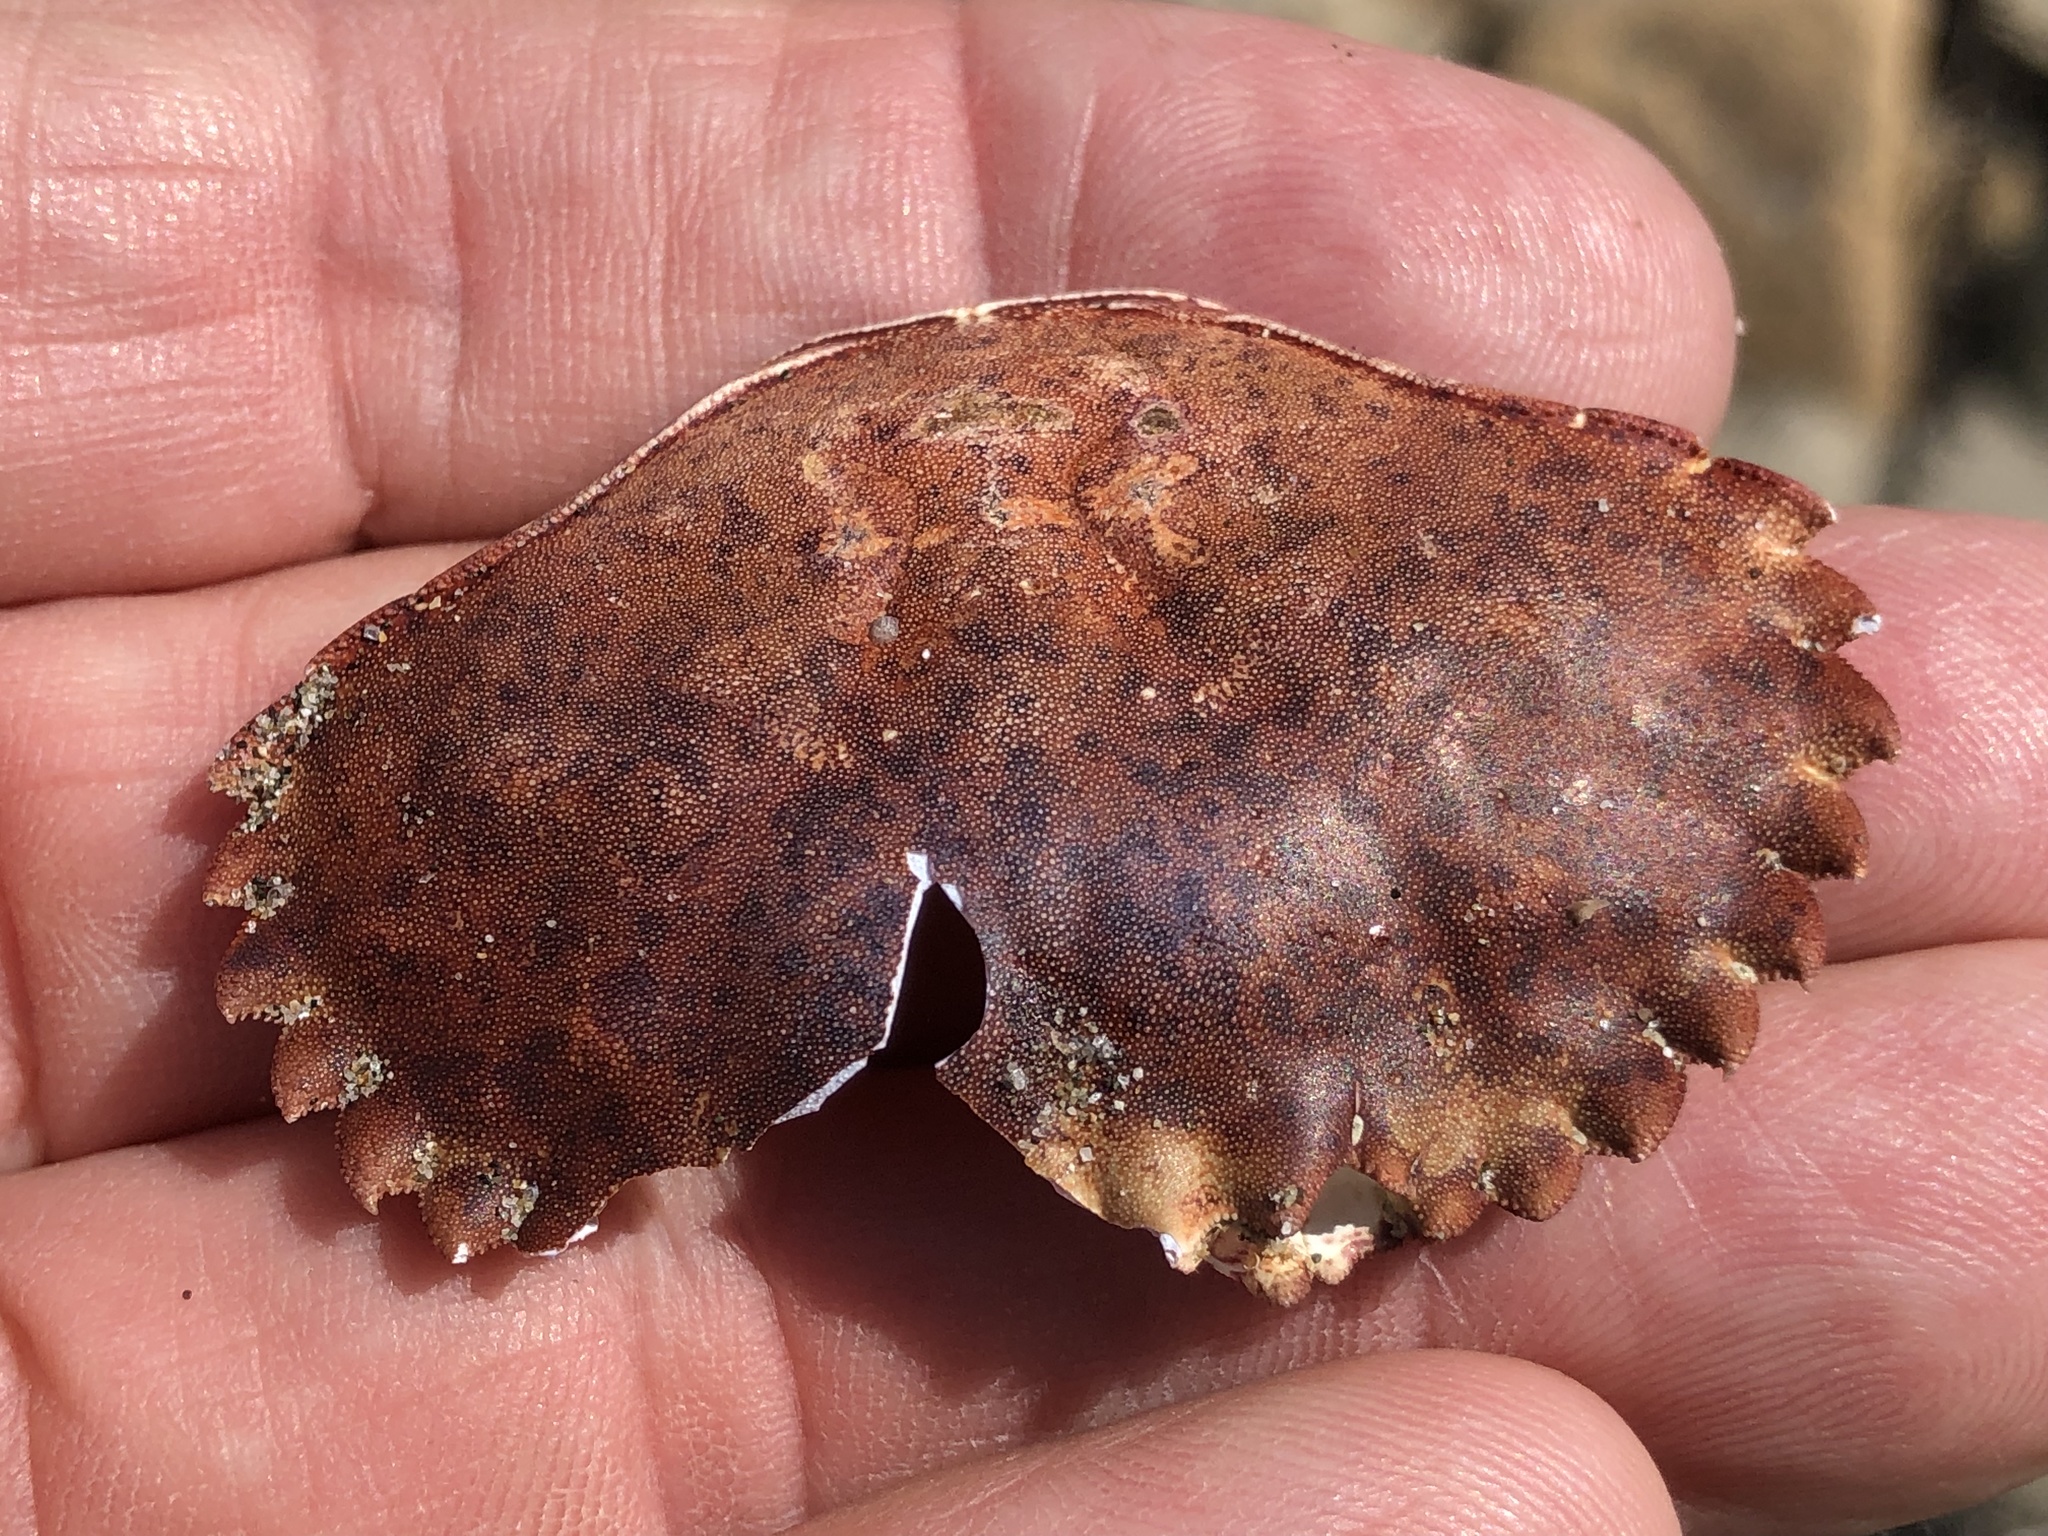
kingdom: Animalia
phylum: Arthropoda
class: Malacostraca
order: Decapoda
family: Cancridae
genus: Romaleon
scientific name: Romaleon antennarium
